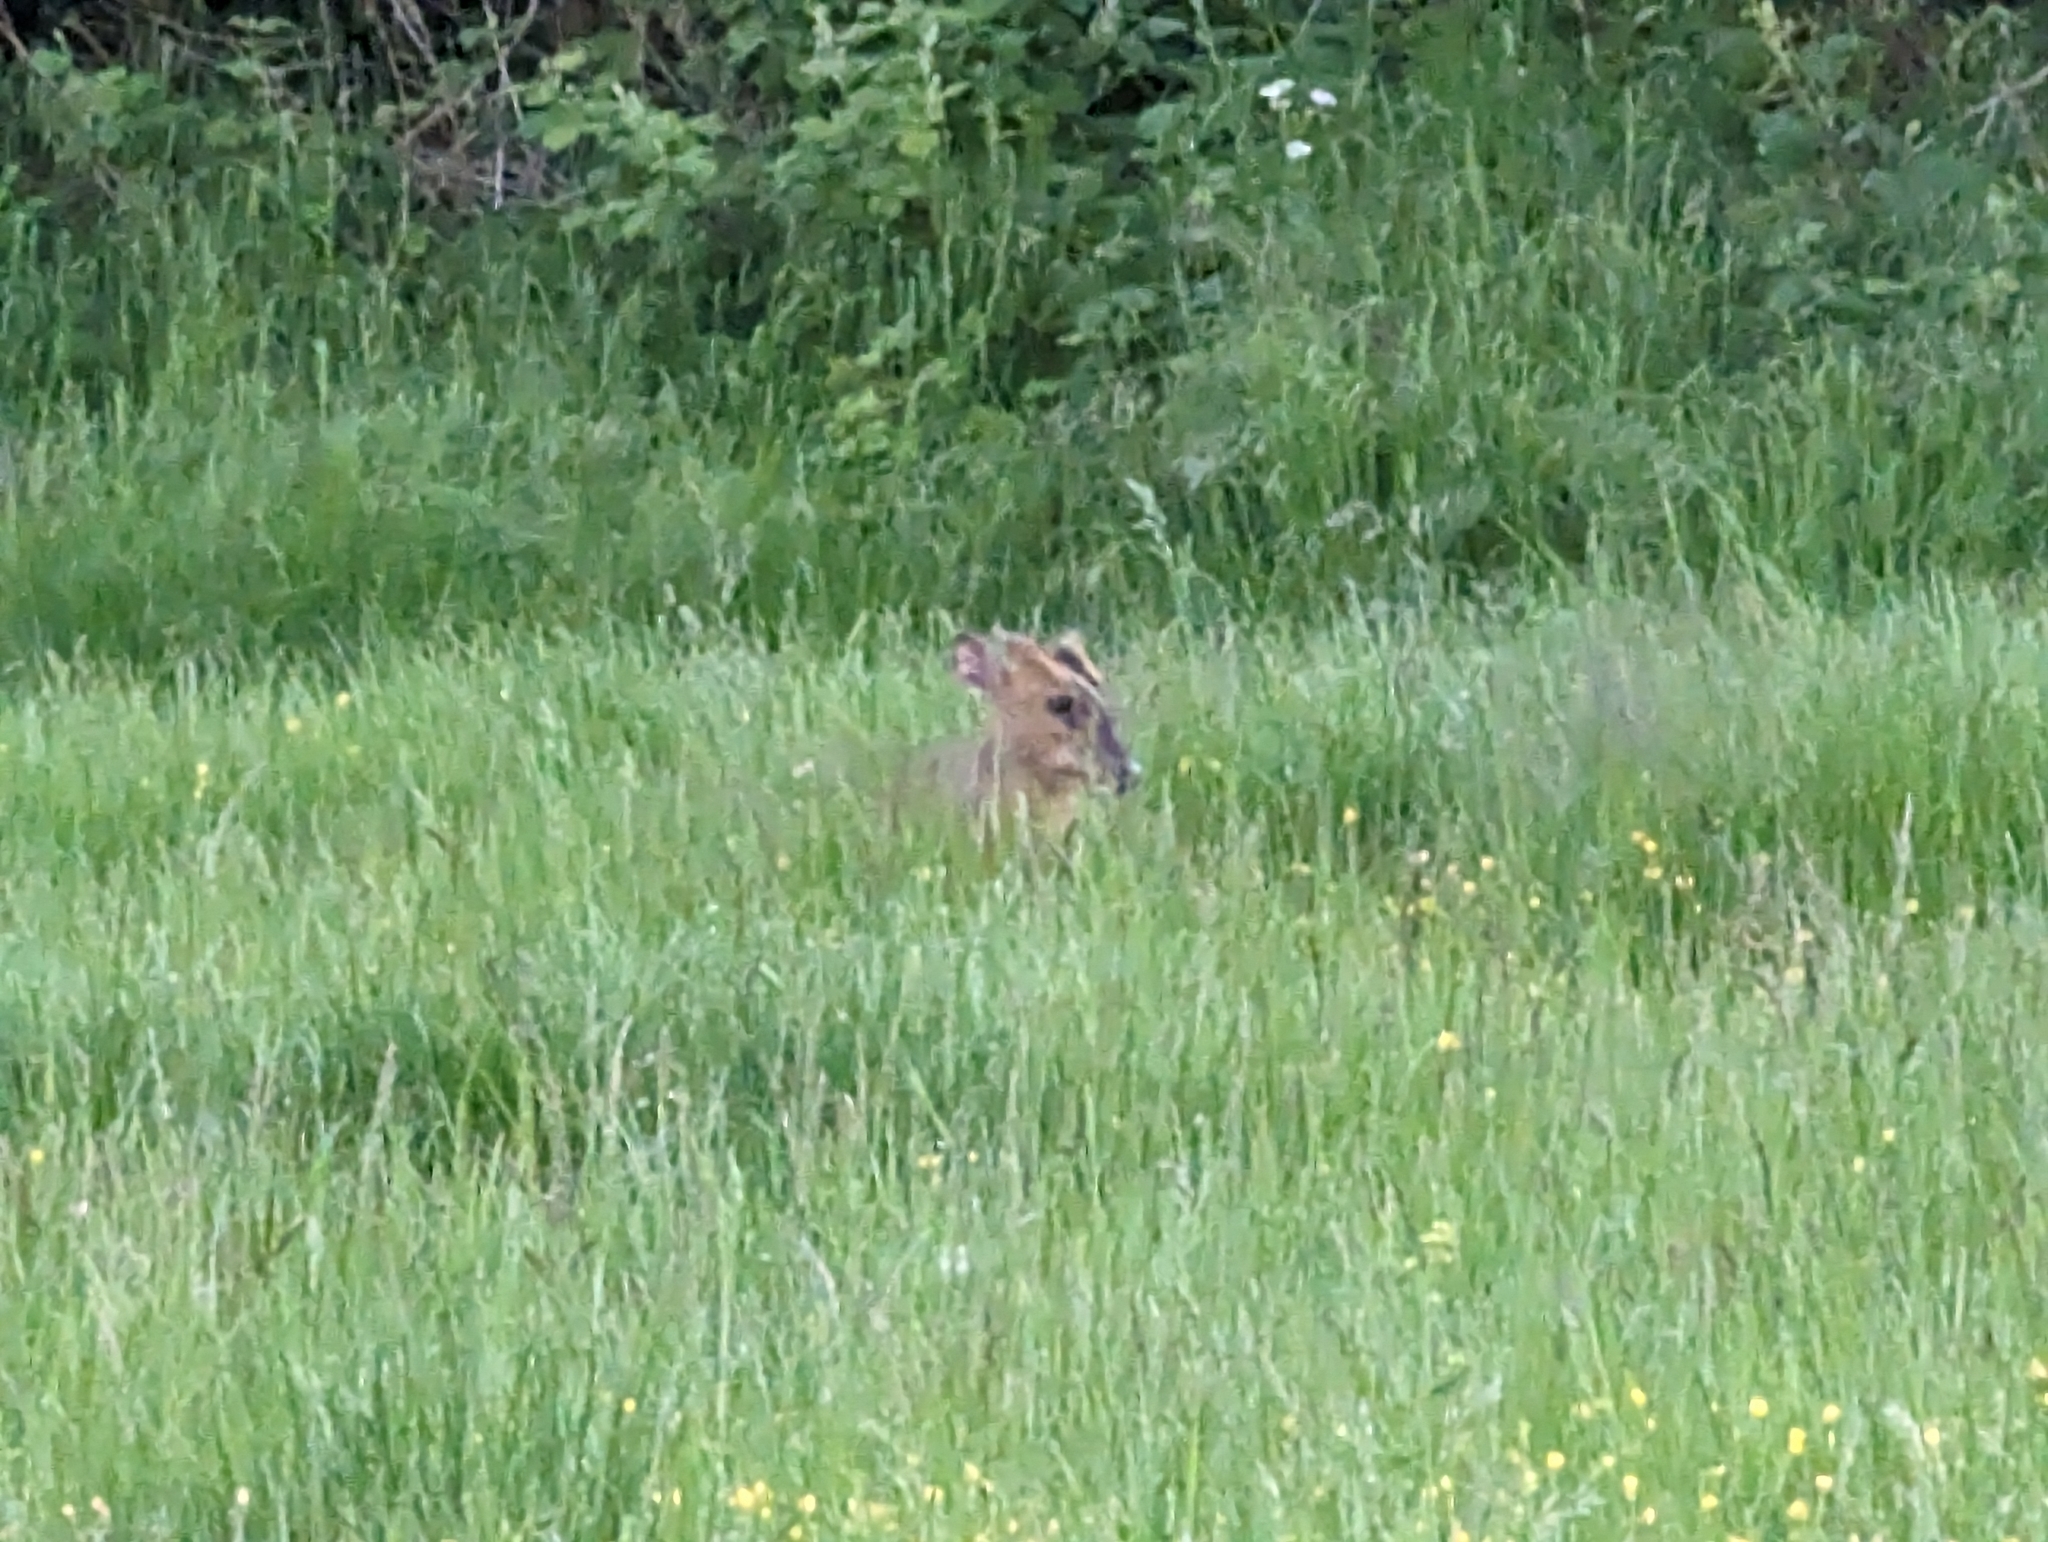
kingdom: Animalia
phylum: Chordata
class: Mammalia
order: Artiodactyla
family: Cervidae
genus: Muntiacus
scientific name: Muntiacus reevesi
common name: Reeves' muntjac
